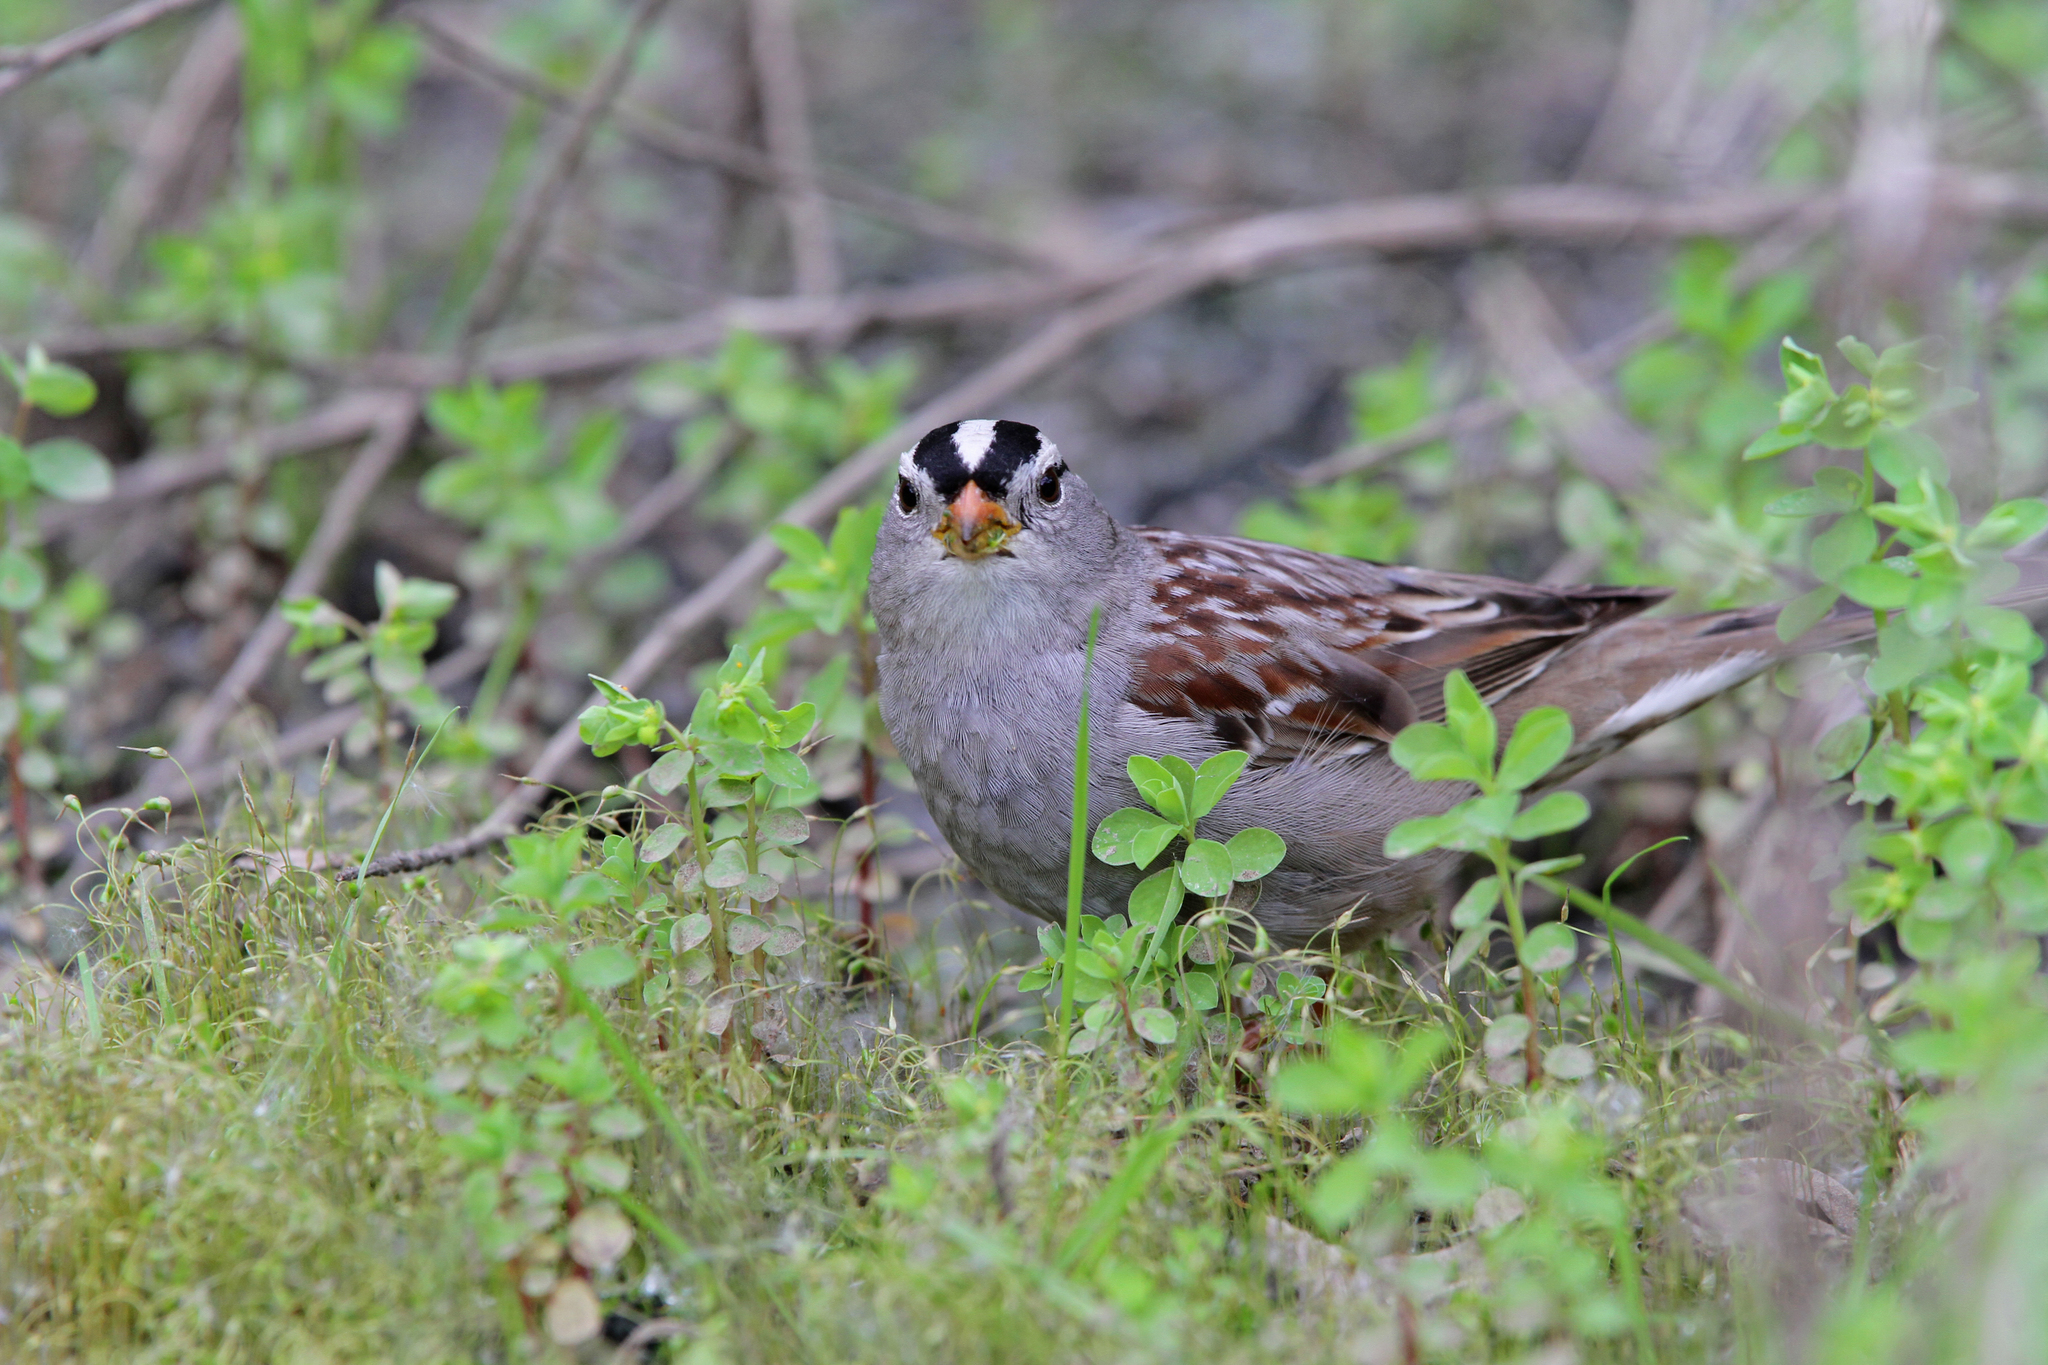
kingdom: Animalia
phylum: Chordata
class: Aves
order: Passeriformes
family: Passerellidae
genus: Zonotrichia
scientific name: Zonotrichia leucophrys
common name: White-crowned sparrow
